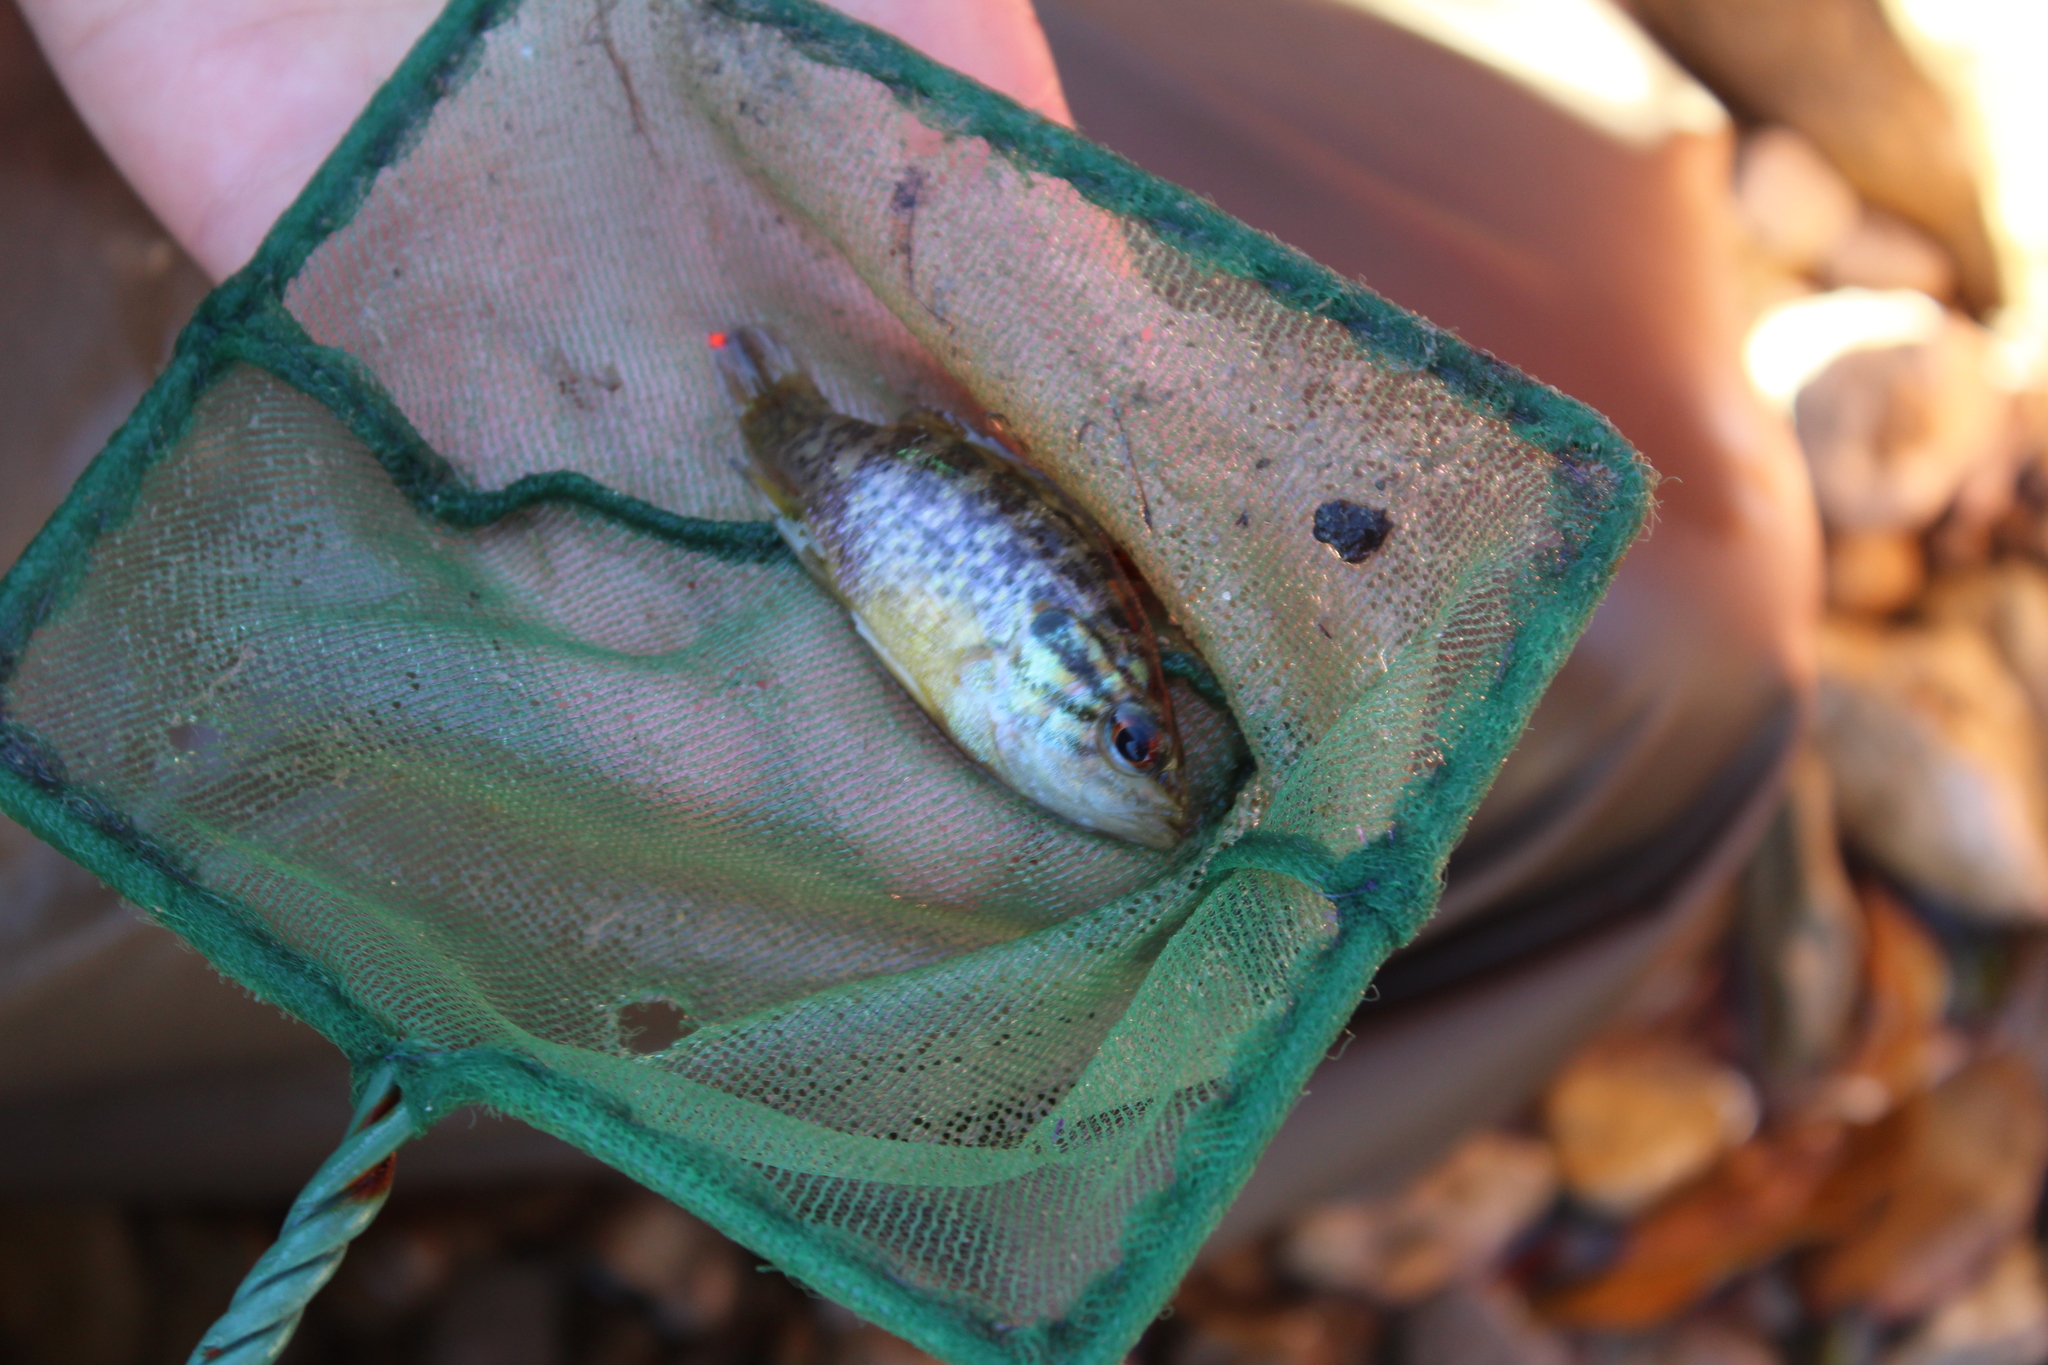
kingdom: Animalia
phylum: Chordata
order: Perciformes
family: Centrarchidae
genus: Lepomis
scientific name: Lepomis gulosus
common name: Warmouth
